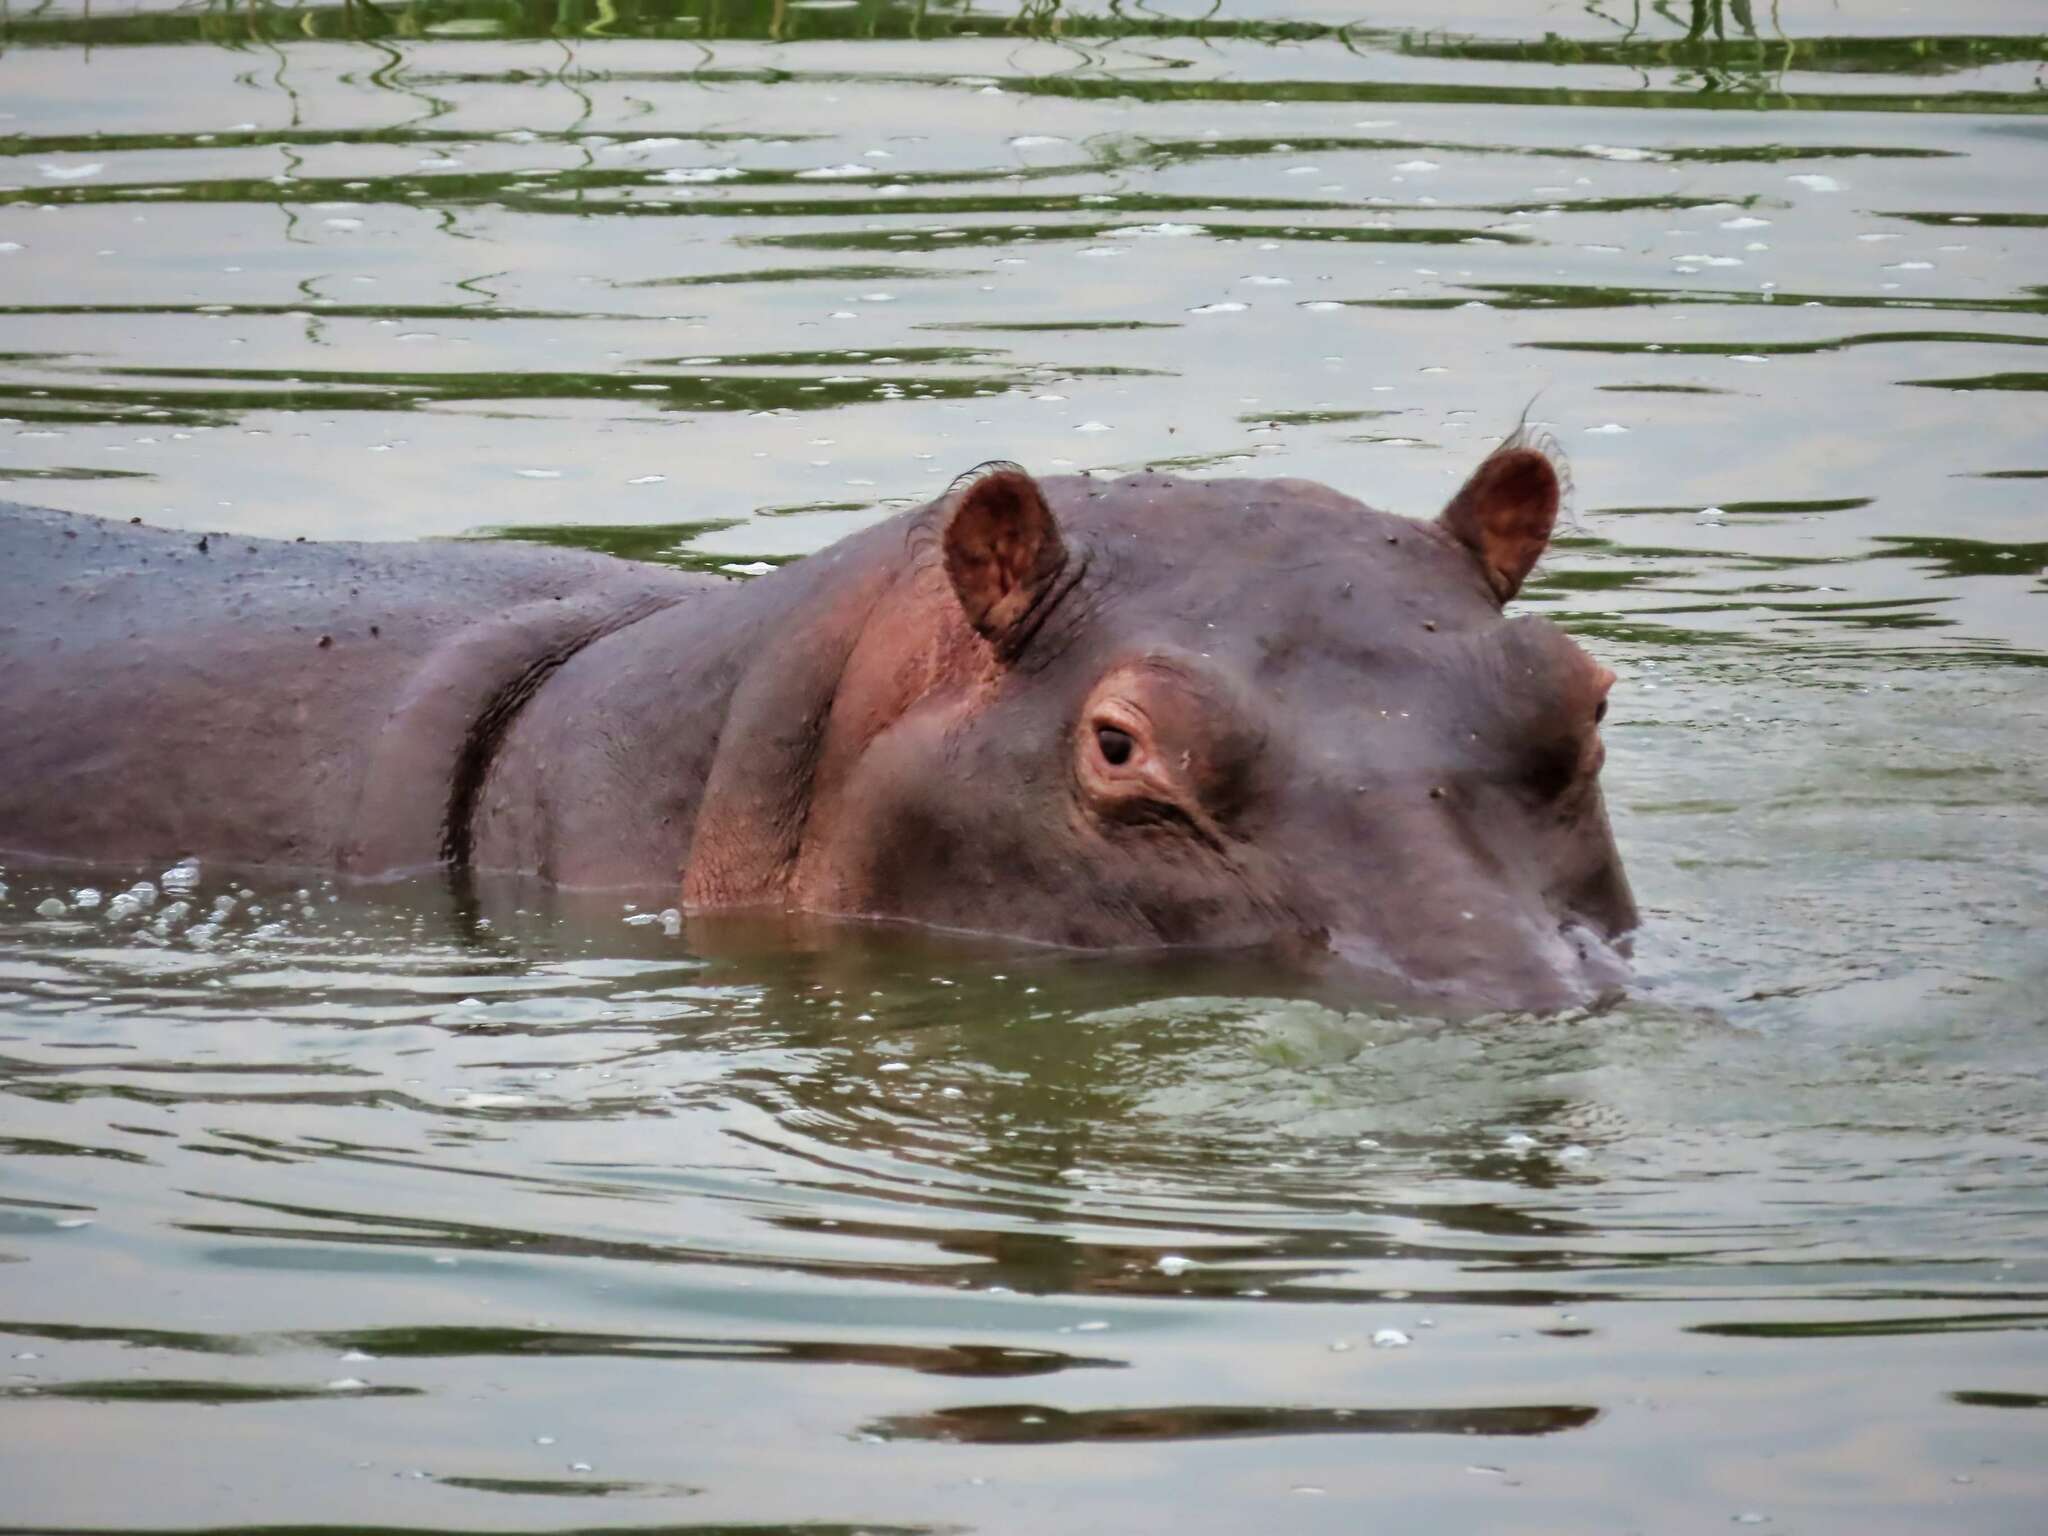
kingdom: Animalia
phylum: Chordata
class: Mammalia
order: Artiodactyla
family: Hippopotamidae
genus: Hippopotamus
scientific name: Hippopotamus amphibius
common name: Common hippopotamus
